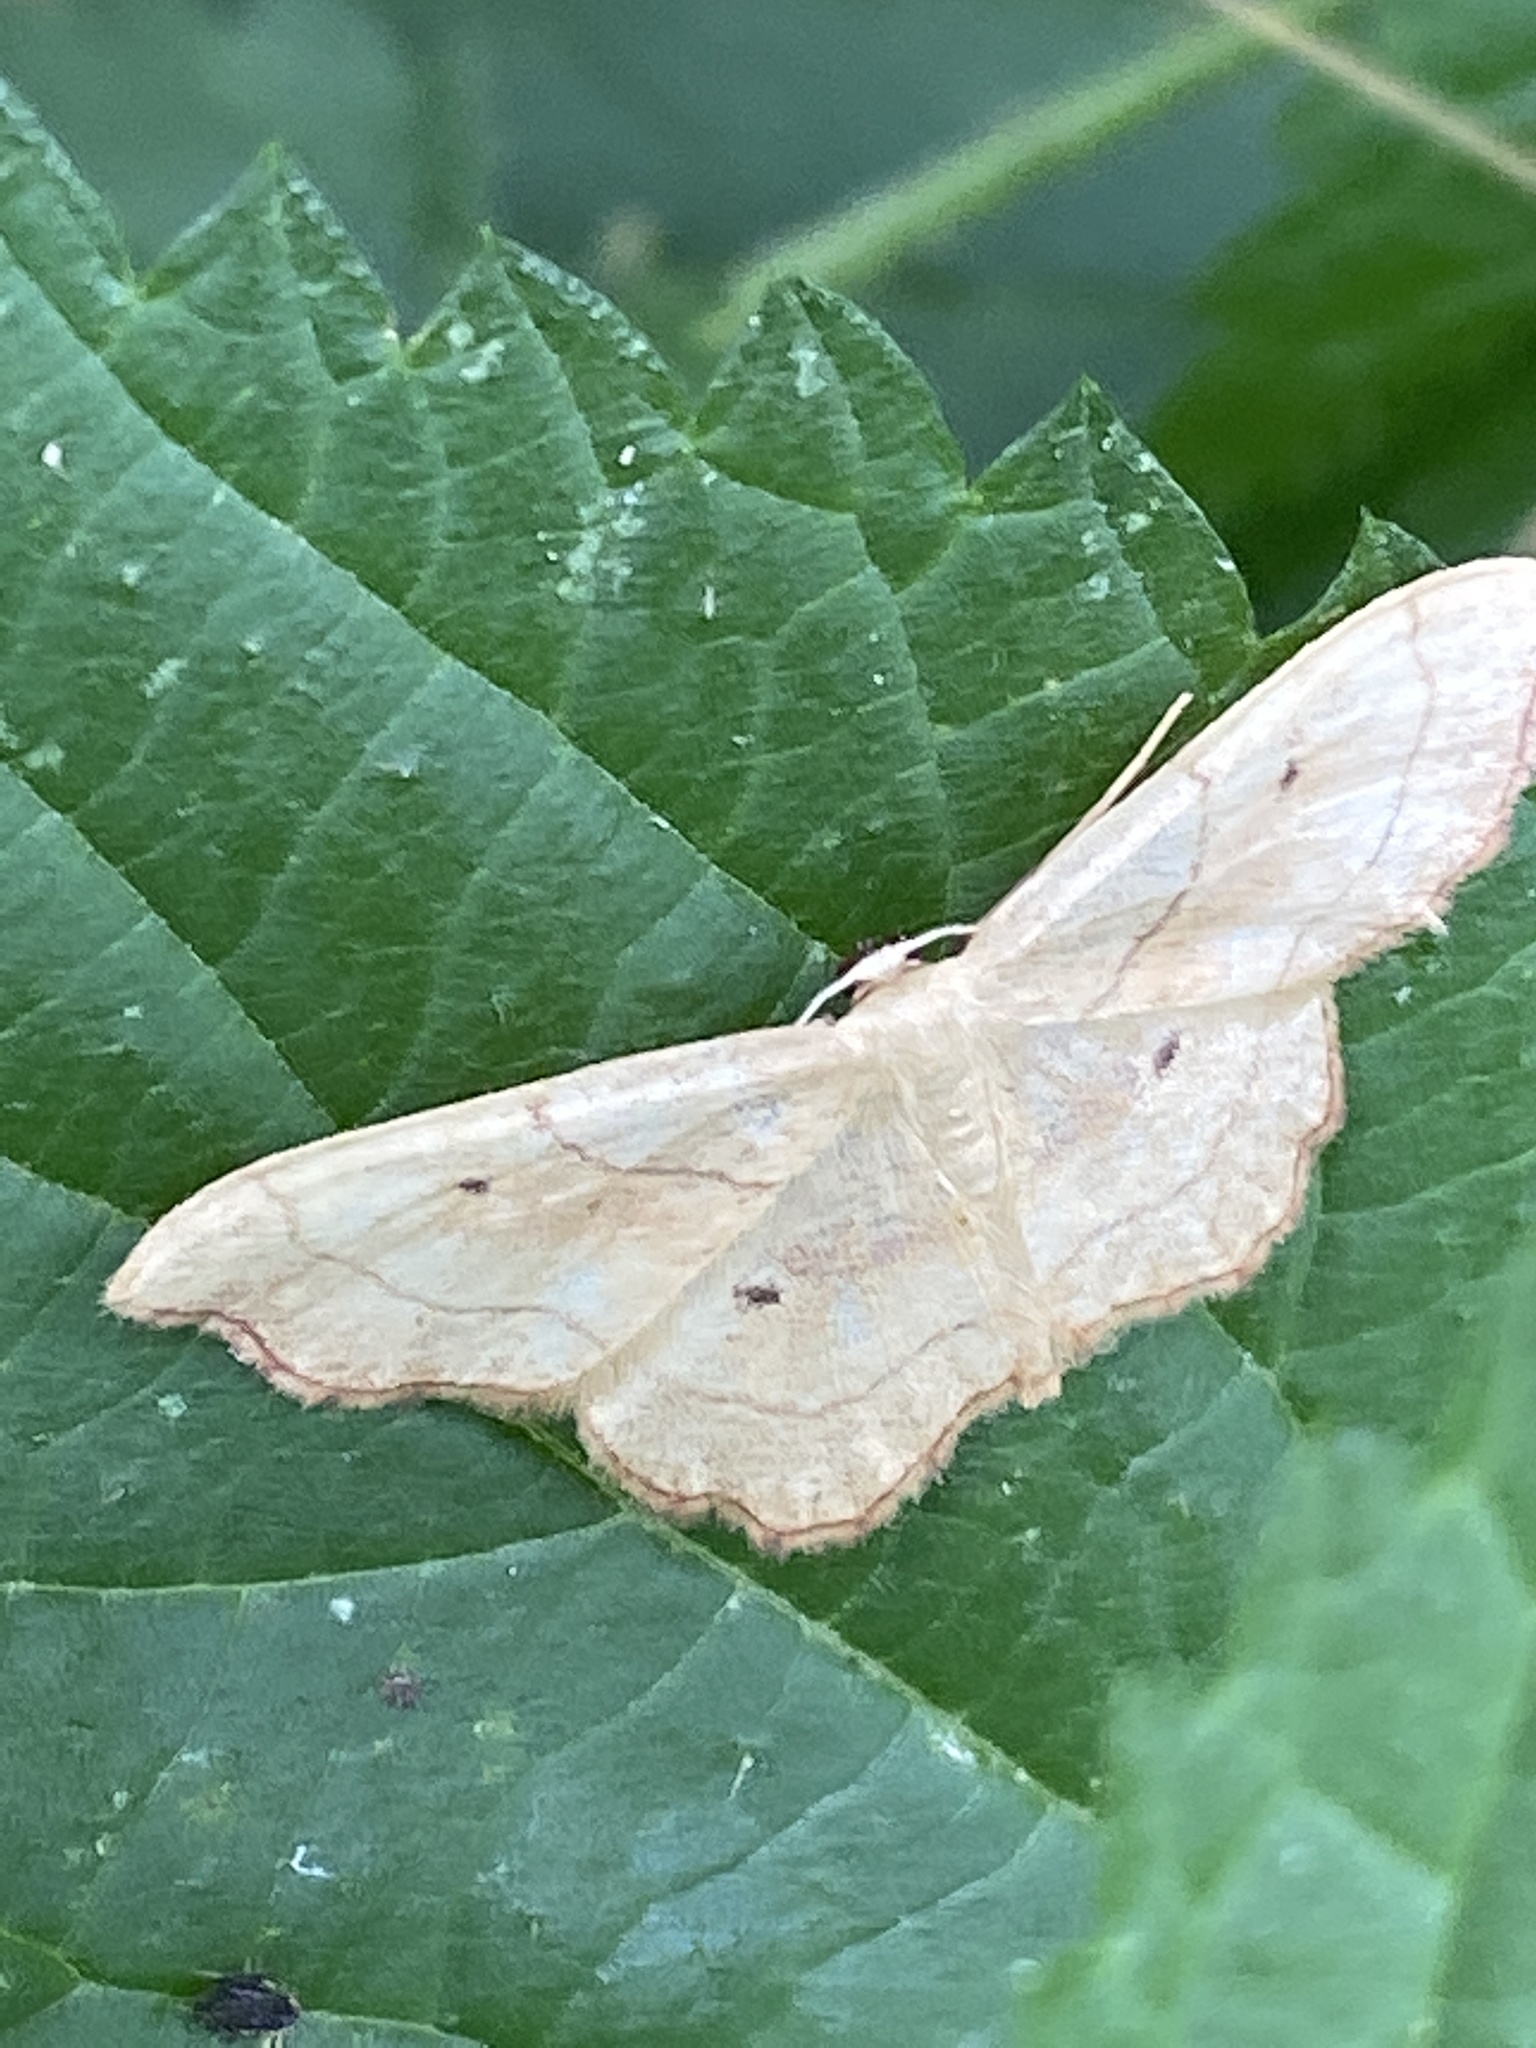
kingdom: Animalia
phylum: Arthropoda
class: Insecta
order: Lepidoptera
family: Geometridae
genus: Idaea
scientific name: Idaea emarginata
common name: Small scallop
